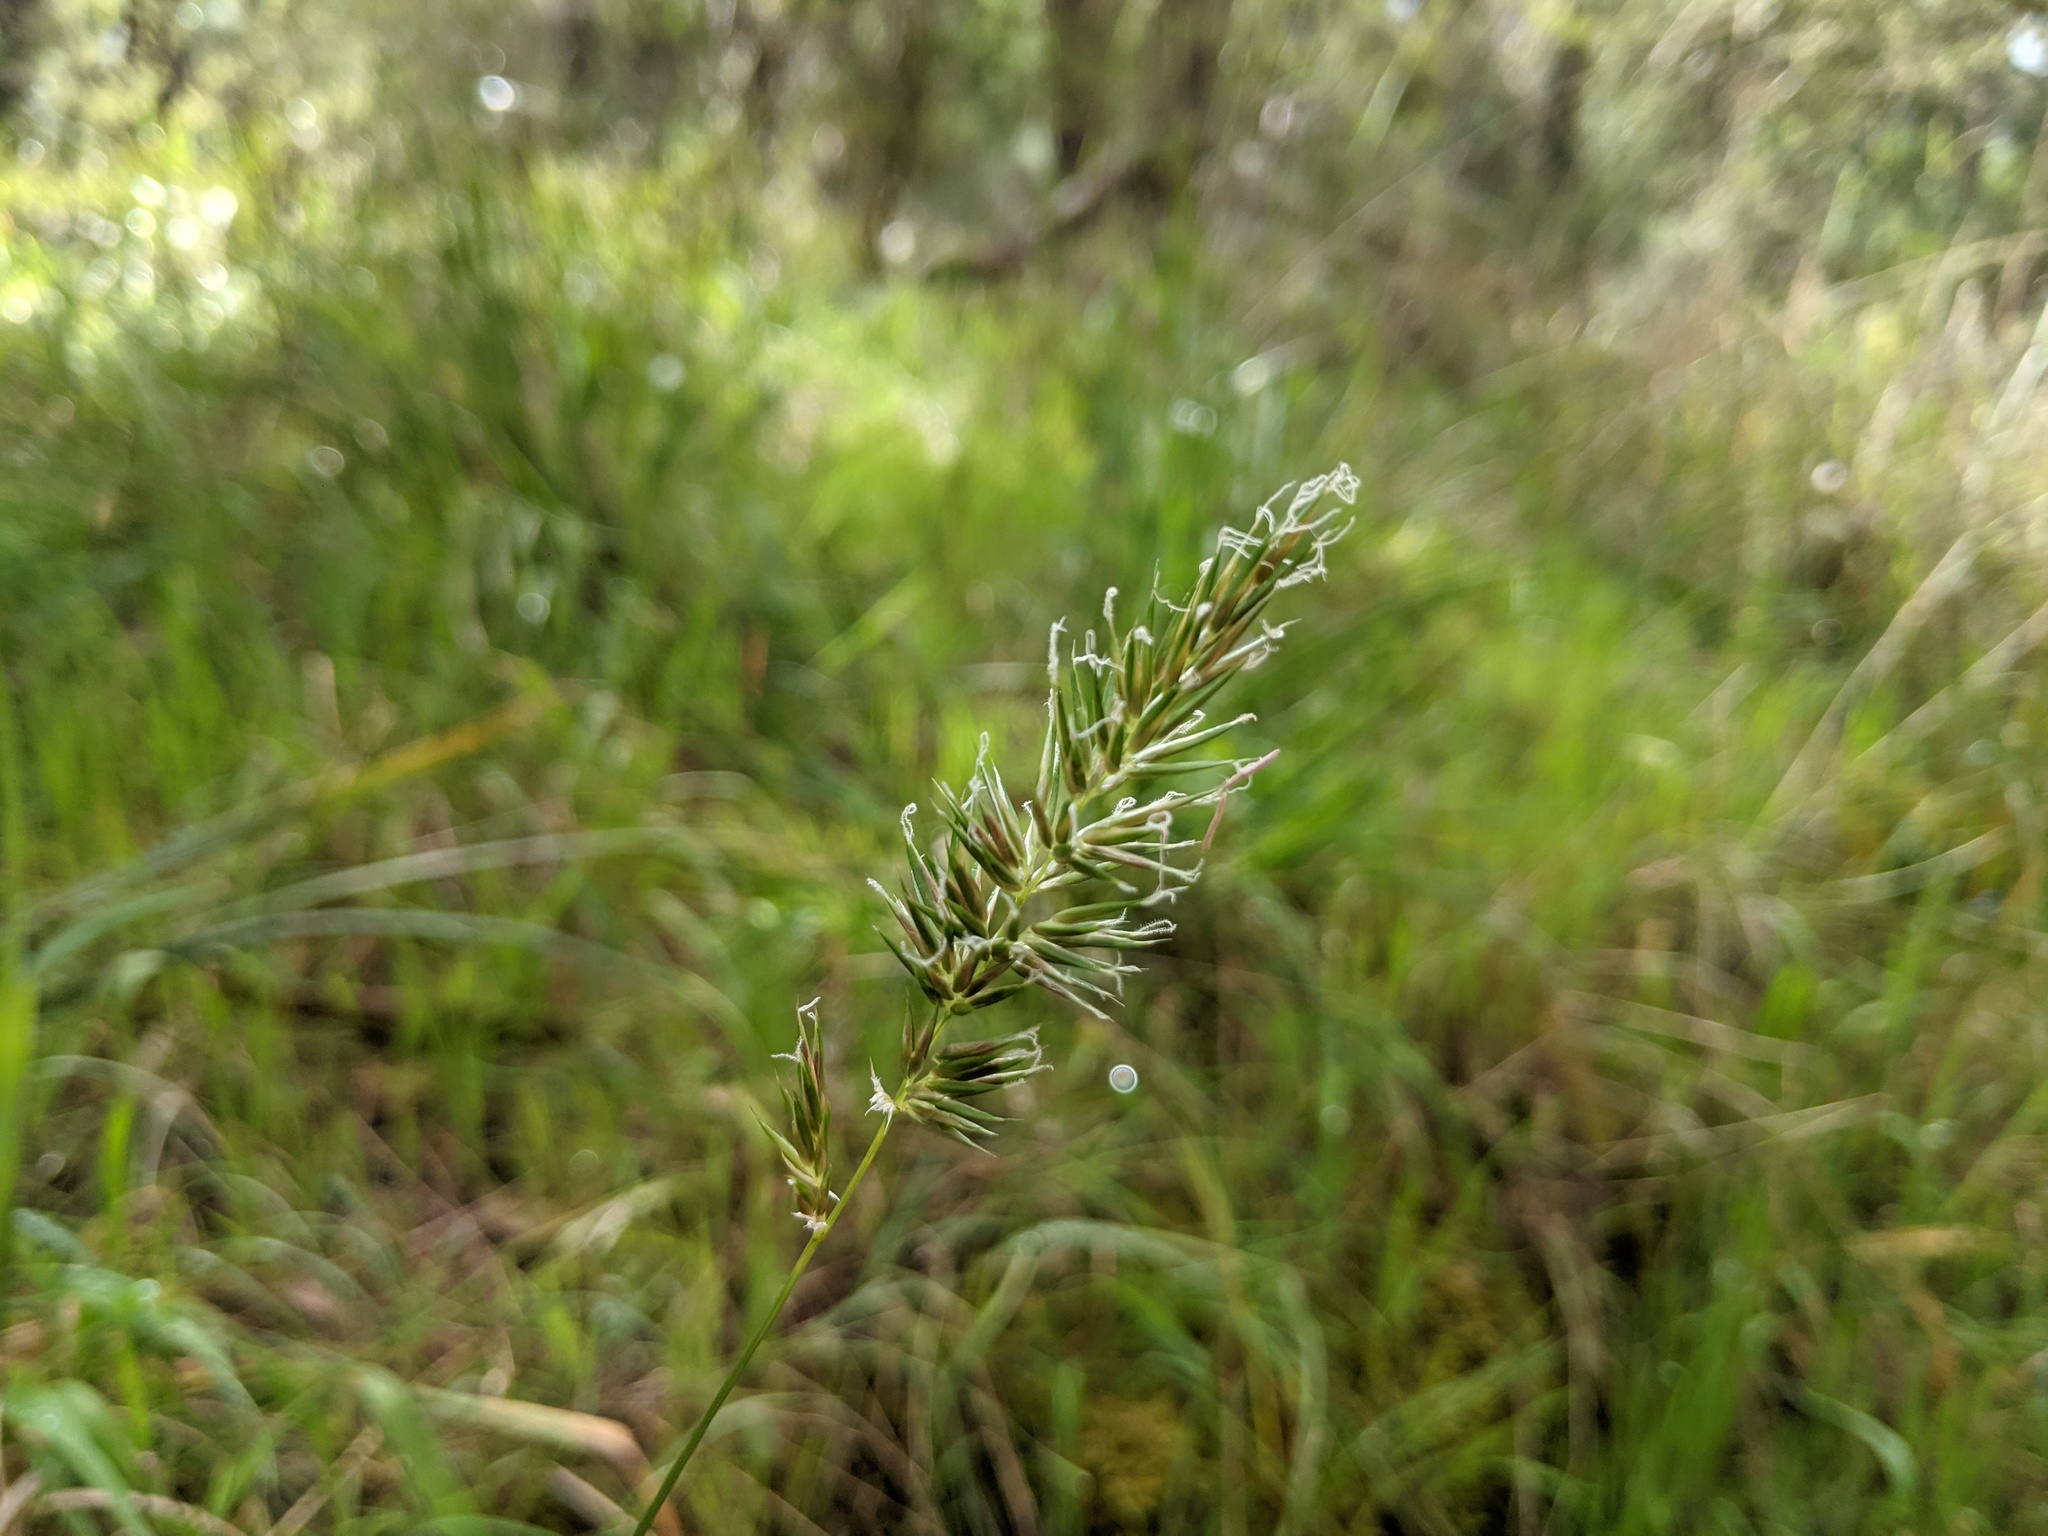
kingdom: Plantae
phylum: Tracheophyta
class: Liliopsida
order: Poales
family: Poaceae
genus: Anthoxanthum
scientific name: Anthoxanthum odoratum
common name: Sweet vernalgrass
